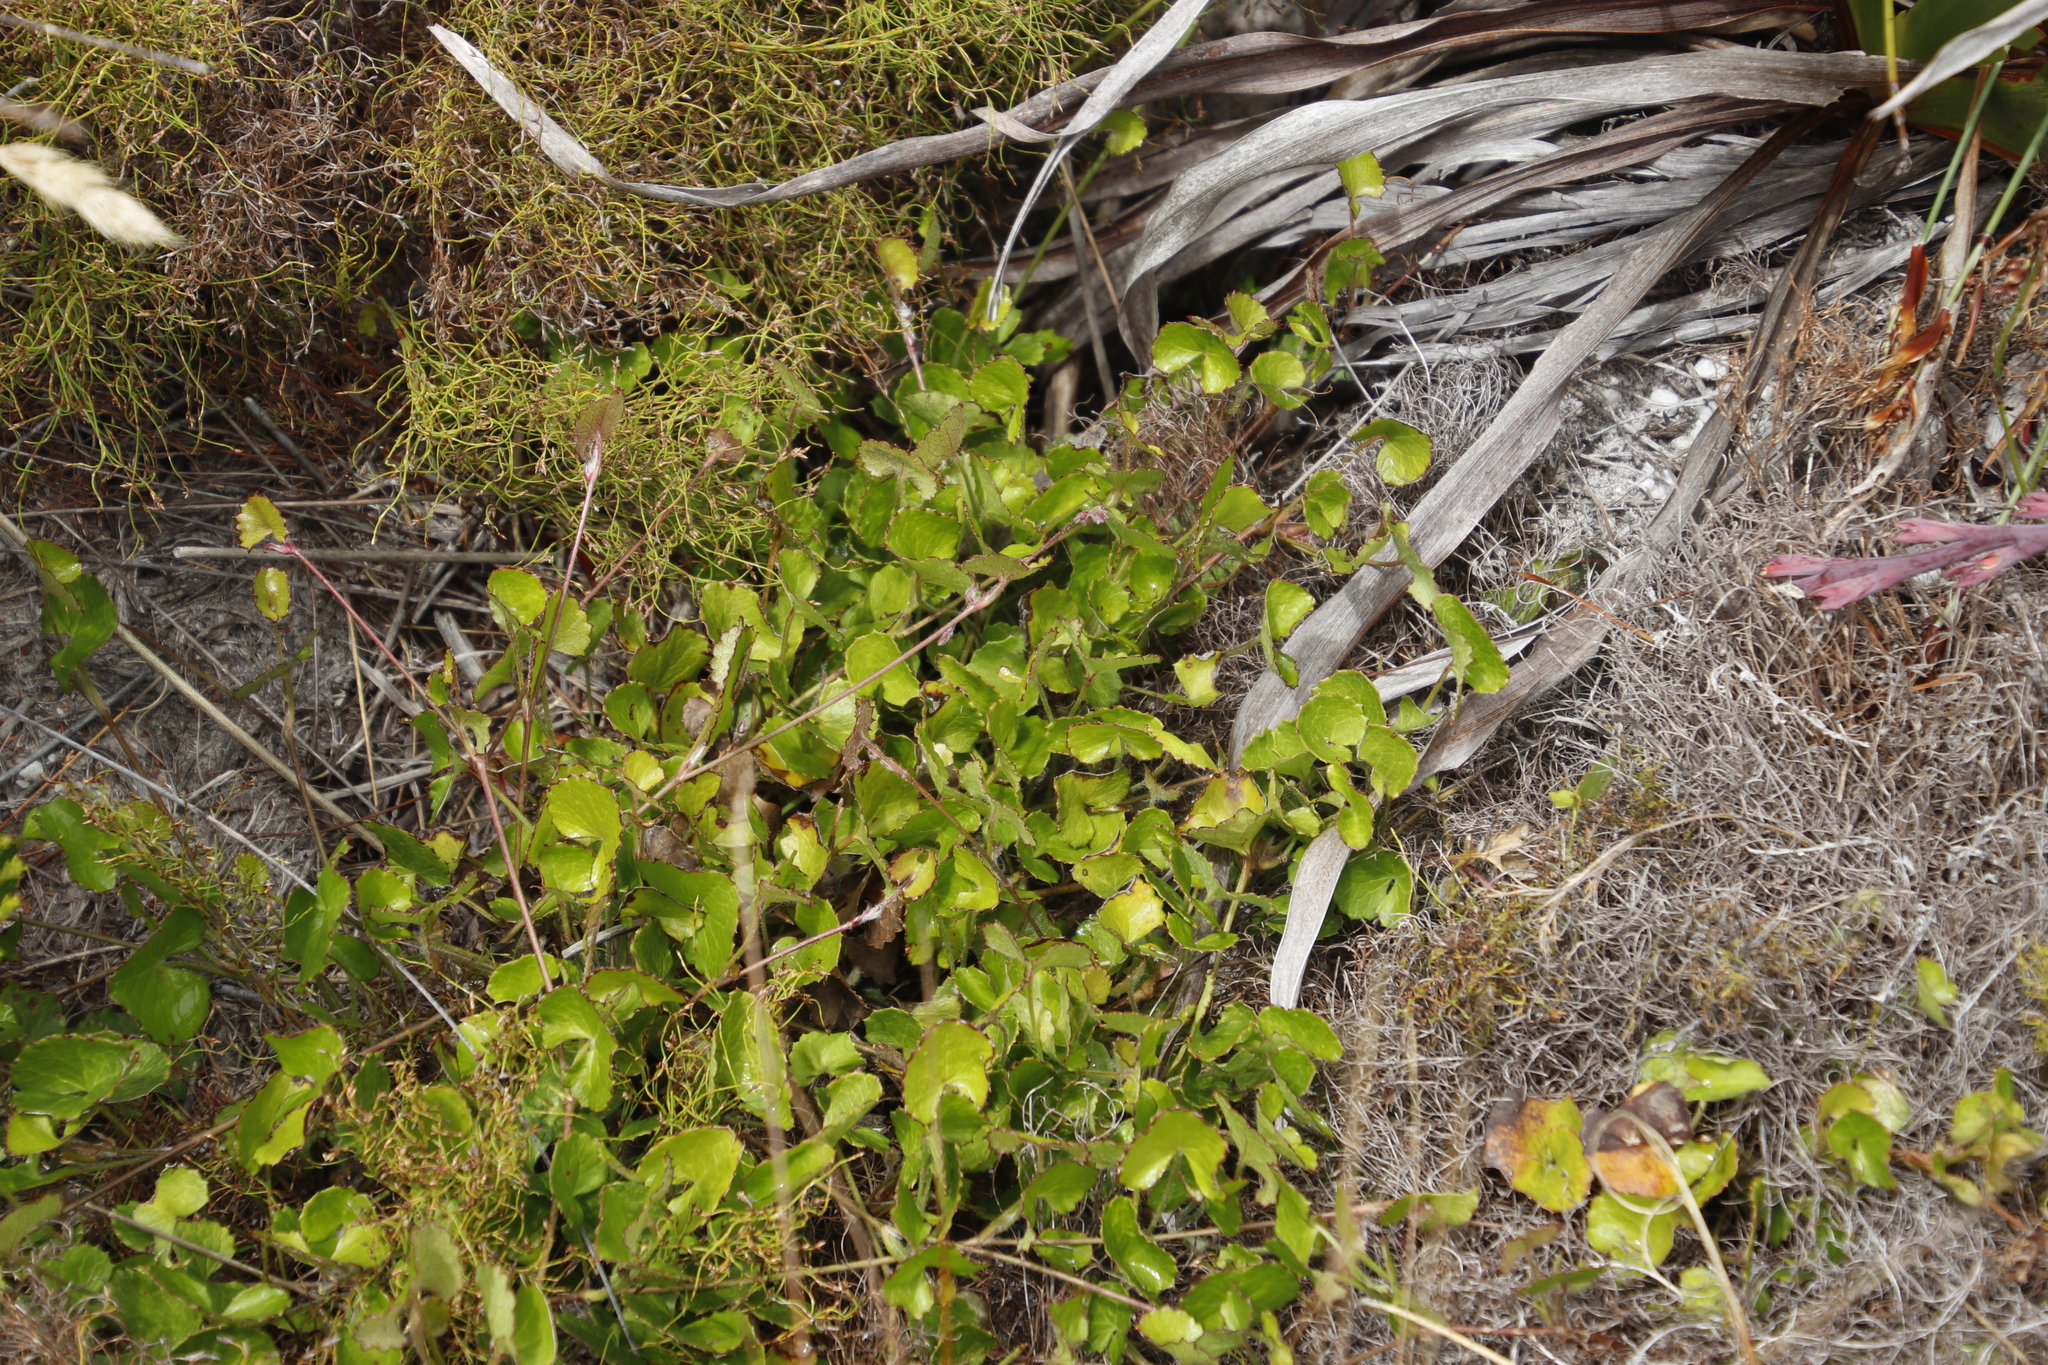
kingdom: Plantae
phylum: Tracheophyta
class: Magnoliopsida
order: Apiales
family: Apiaceae
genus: Centella
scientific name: Centella eriantha
